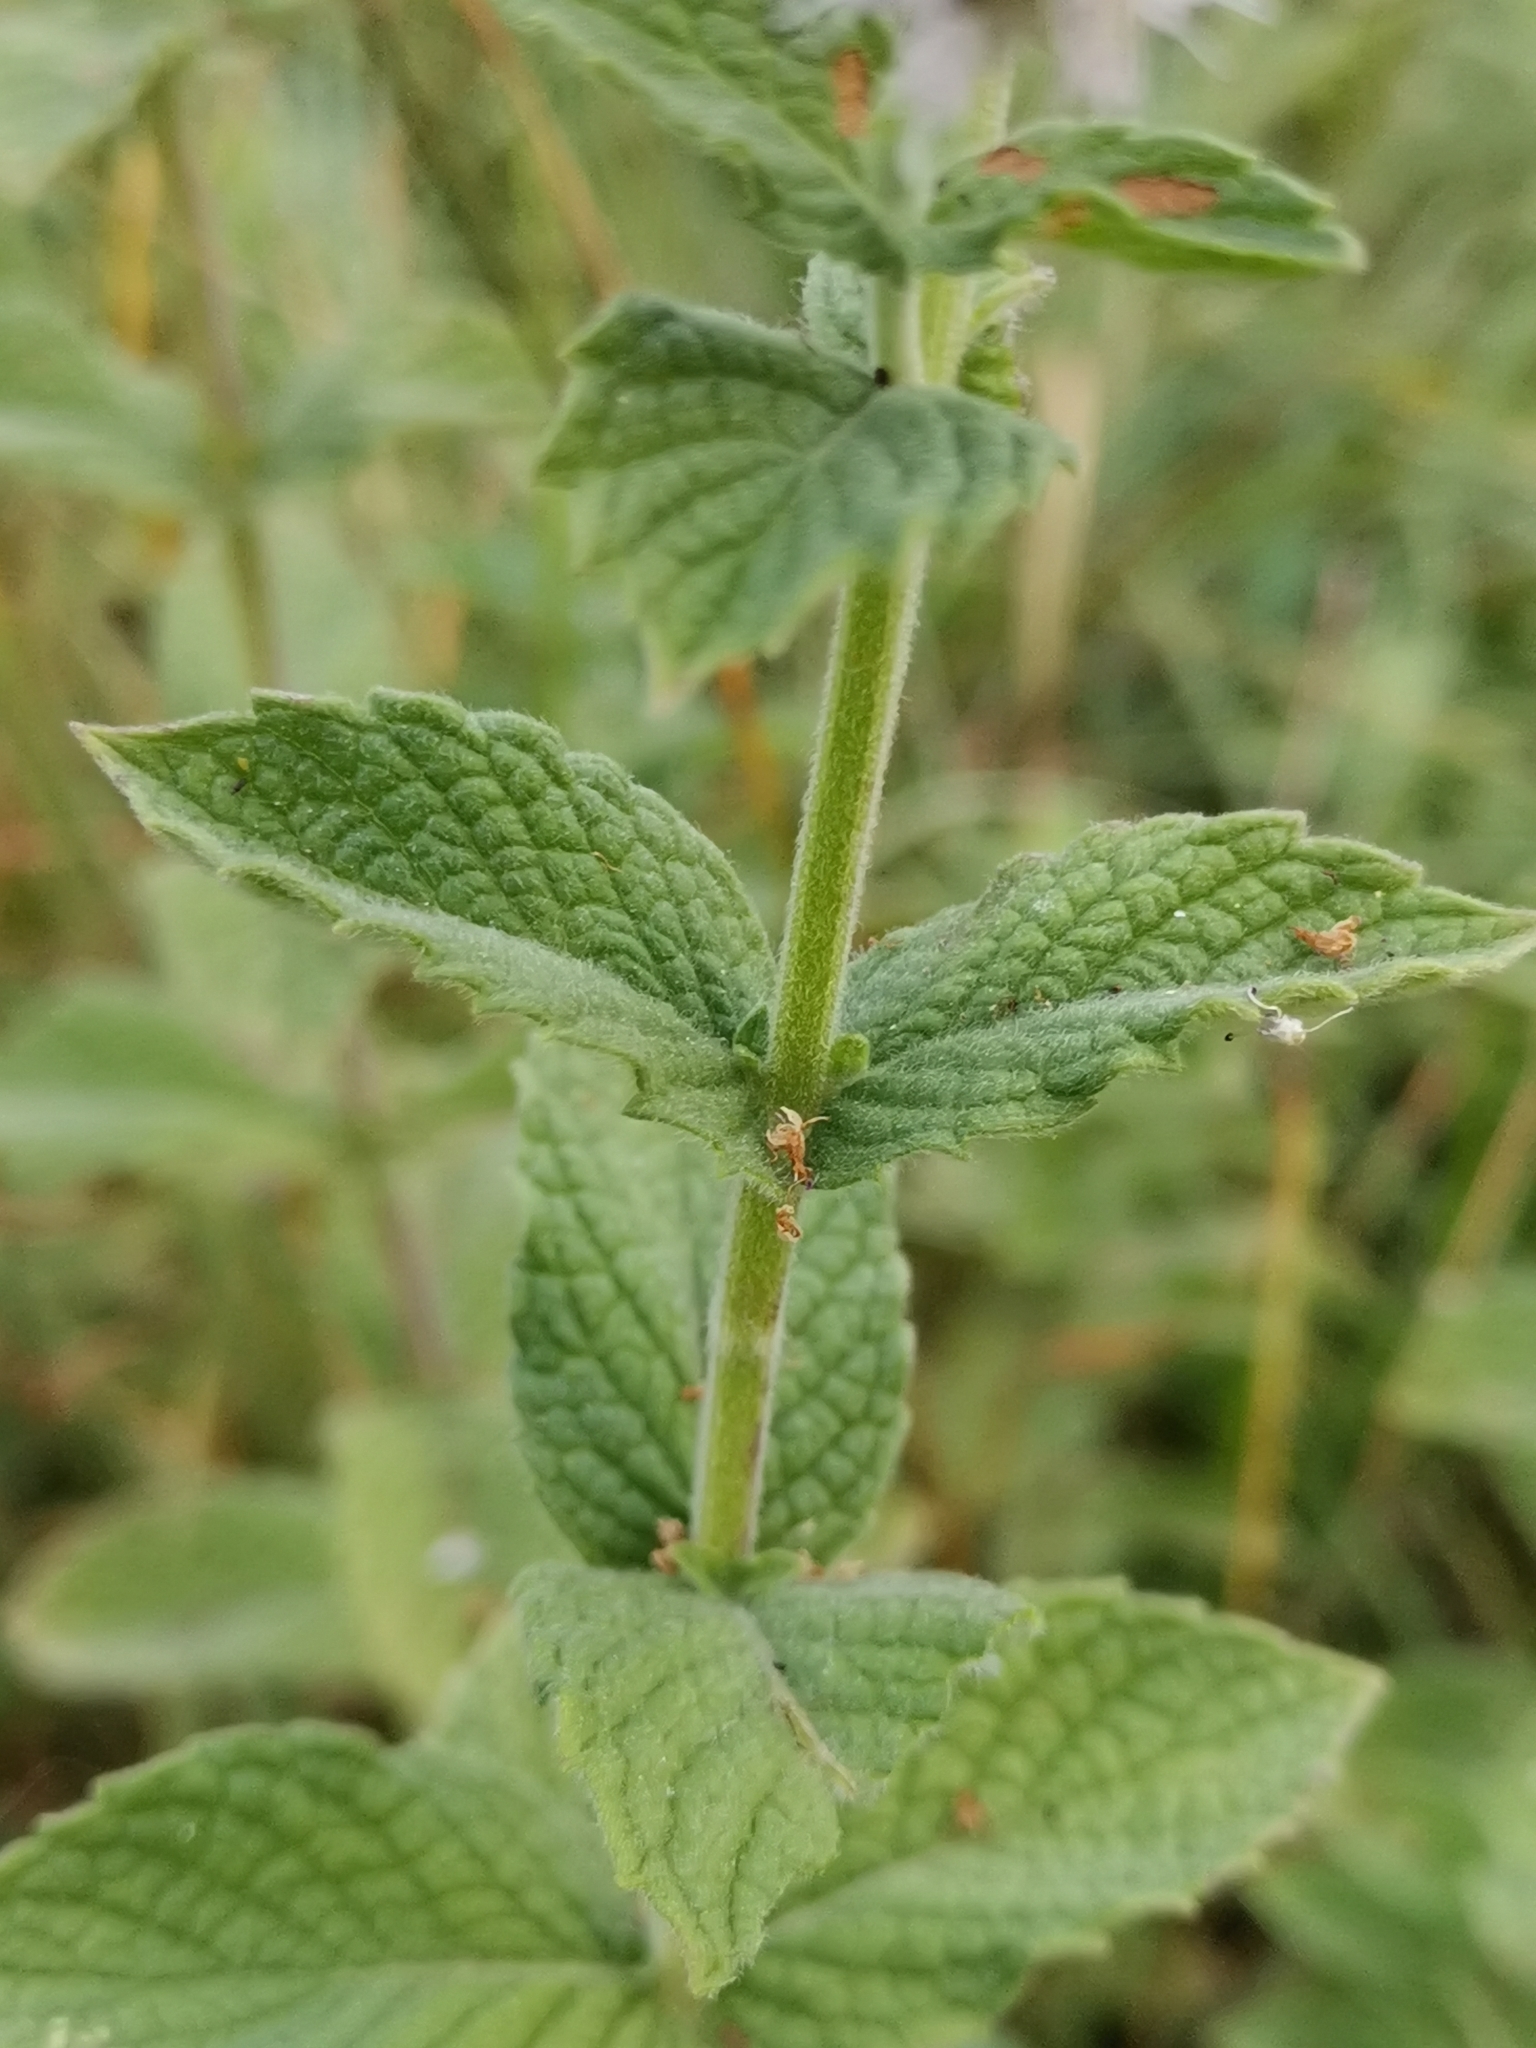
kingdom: Plantae
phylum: Tracheophyta
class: Magnoliopsida
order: Lamiales
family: Lamiaceae
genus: Mentha
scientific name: Mentha longifolia
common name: Horse mint
